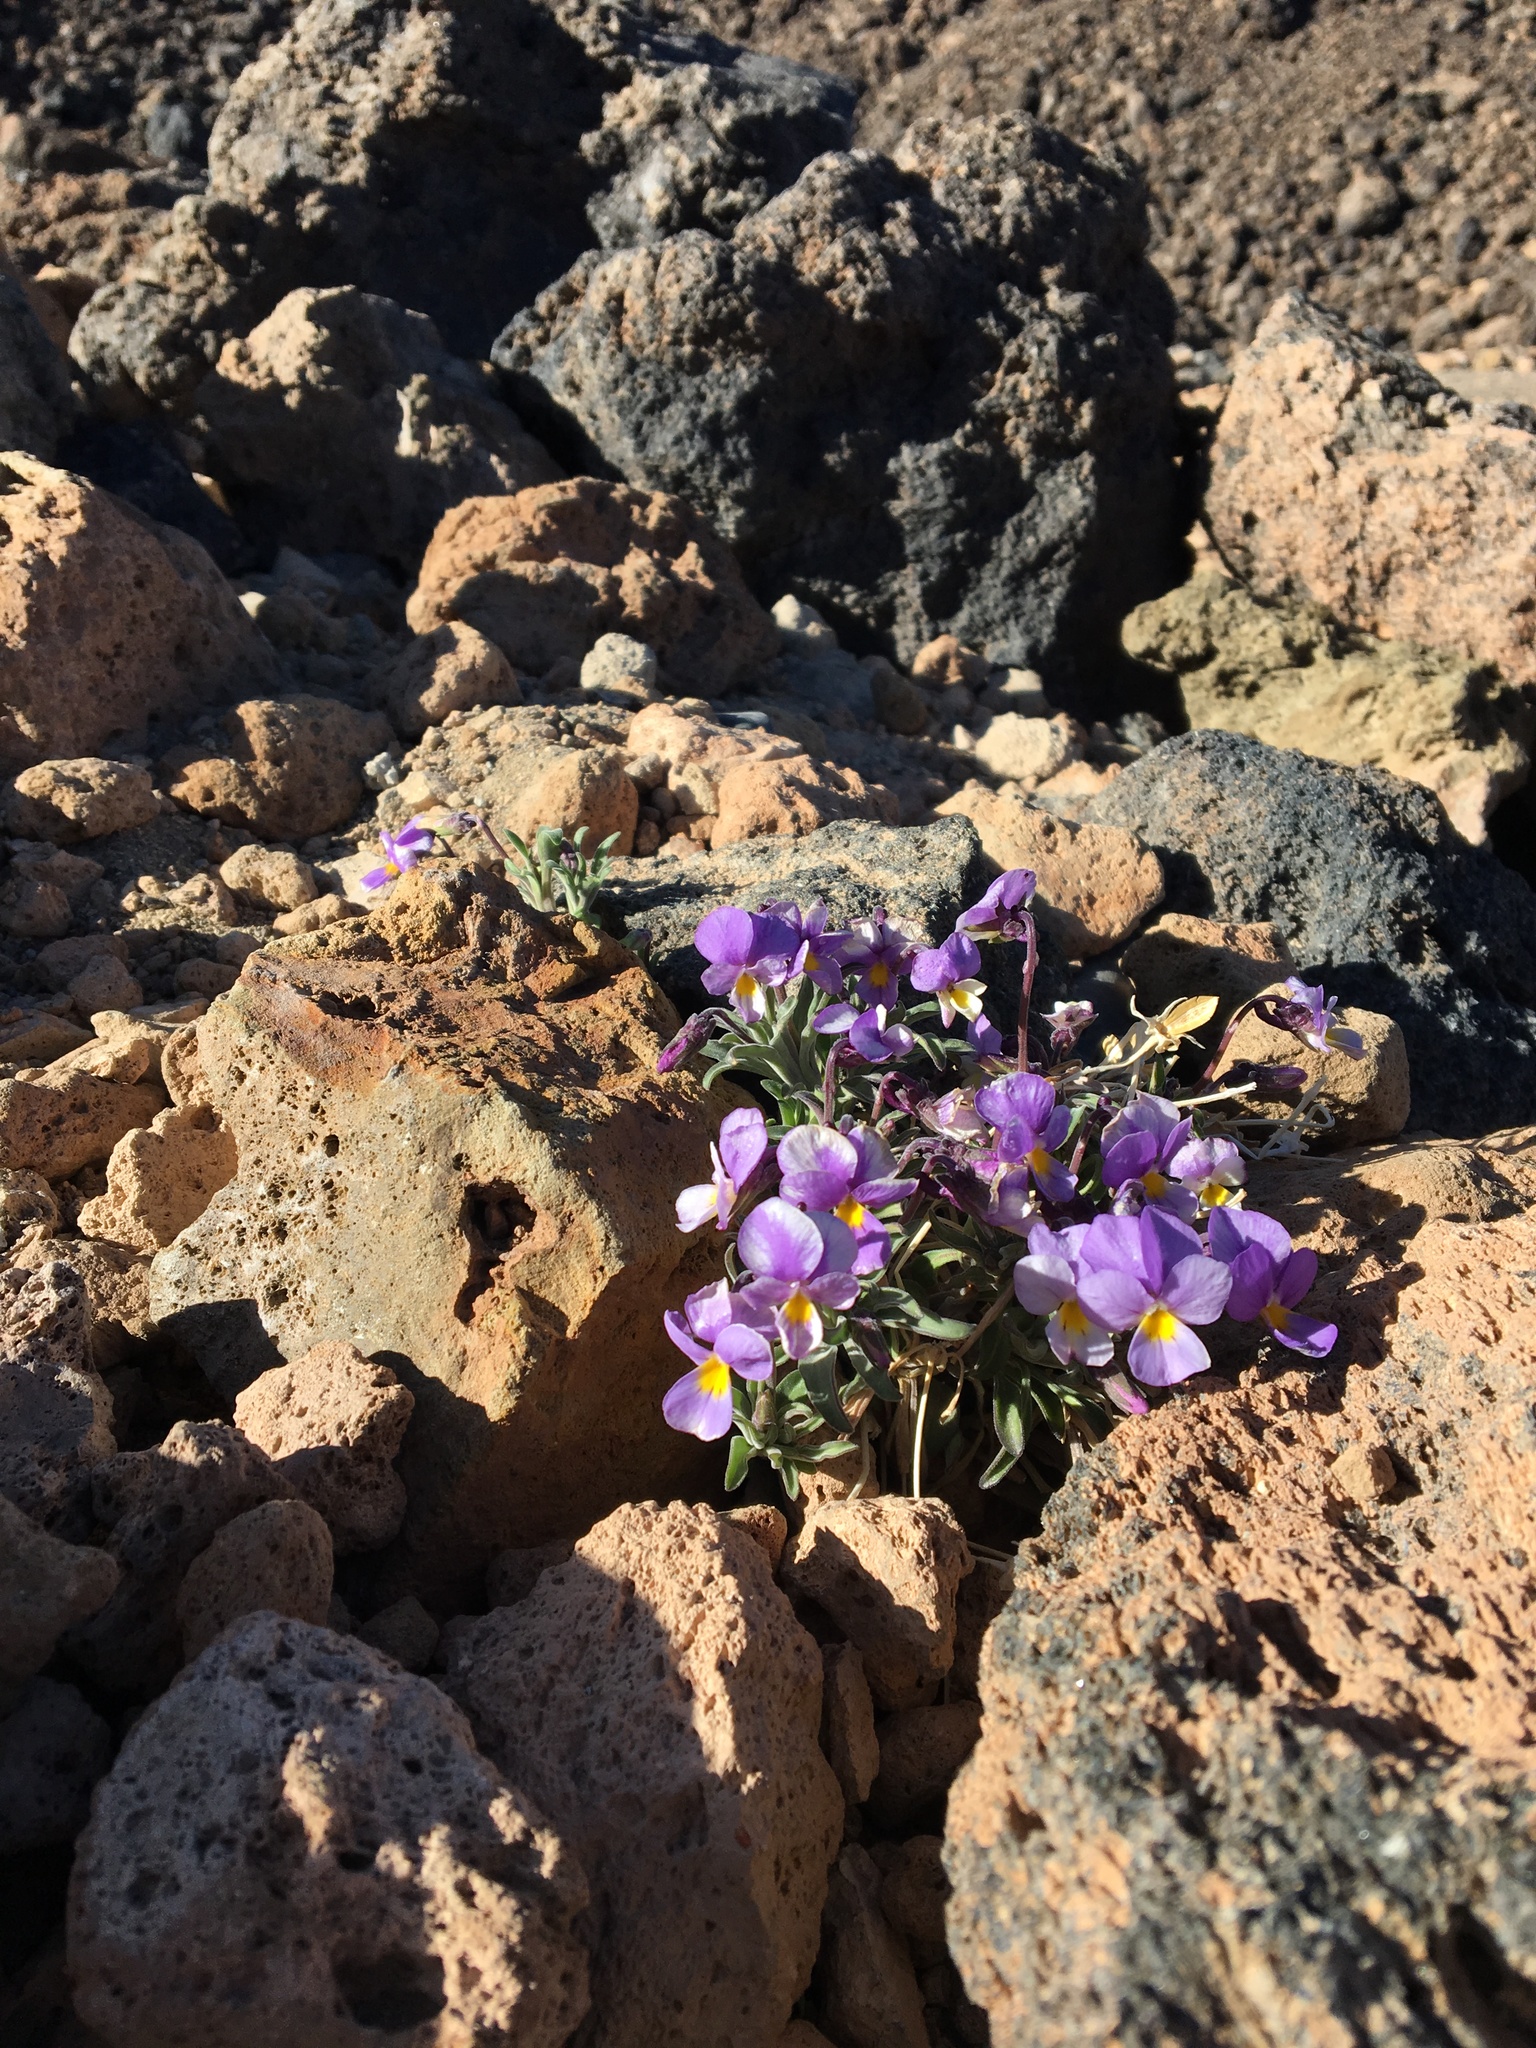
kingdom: Plantae
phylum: Tracheophyta
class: Magnoliopsida
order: Malpighiales
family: Violaceae
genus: Viola
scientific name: Viola cheiranthifolia
